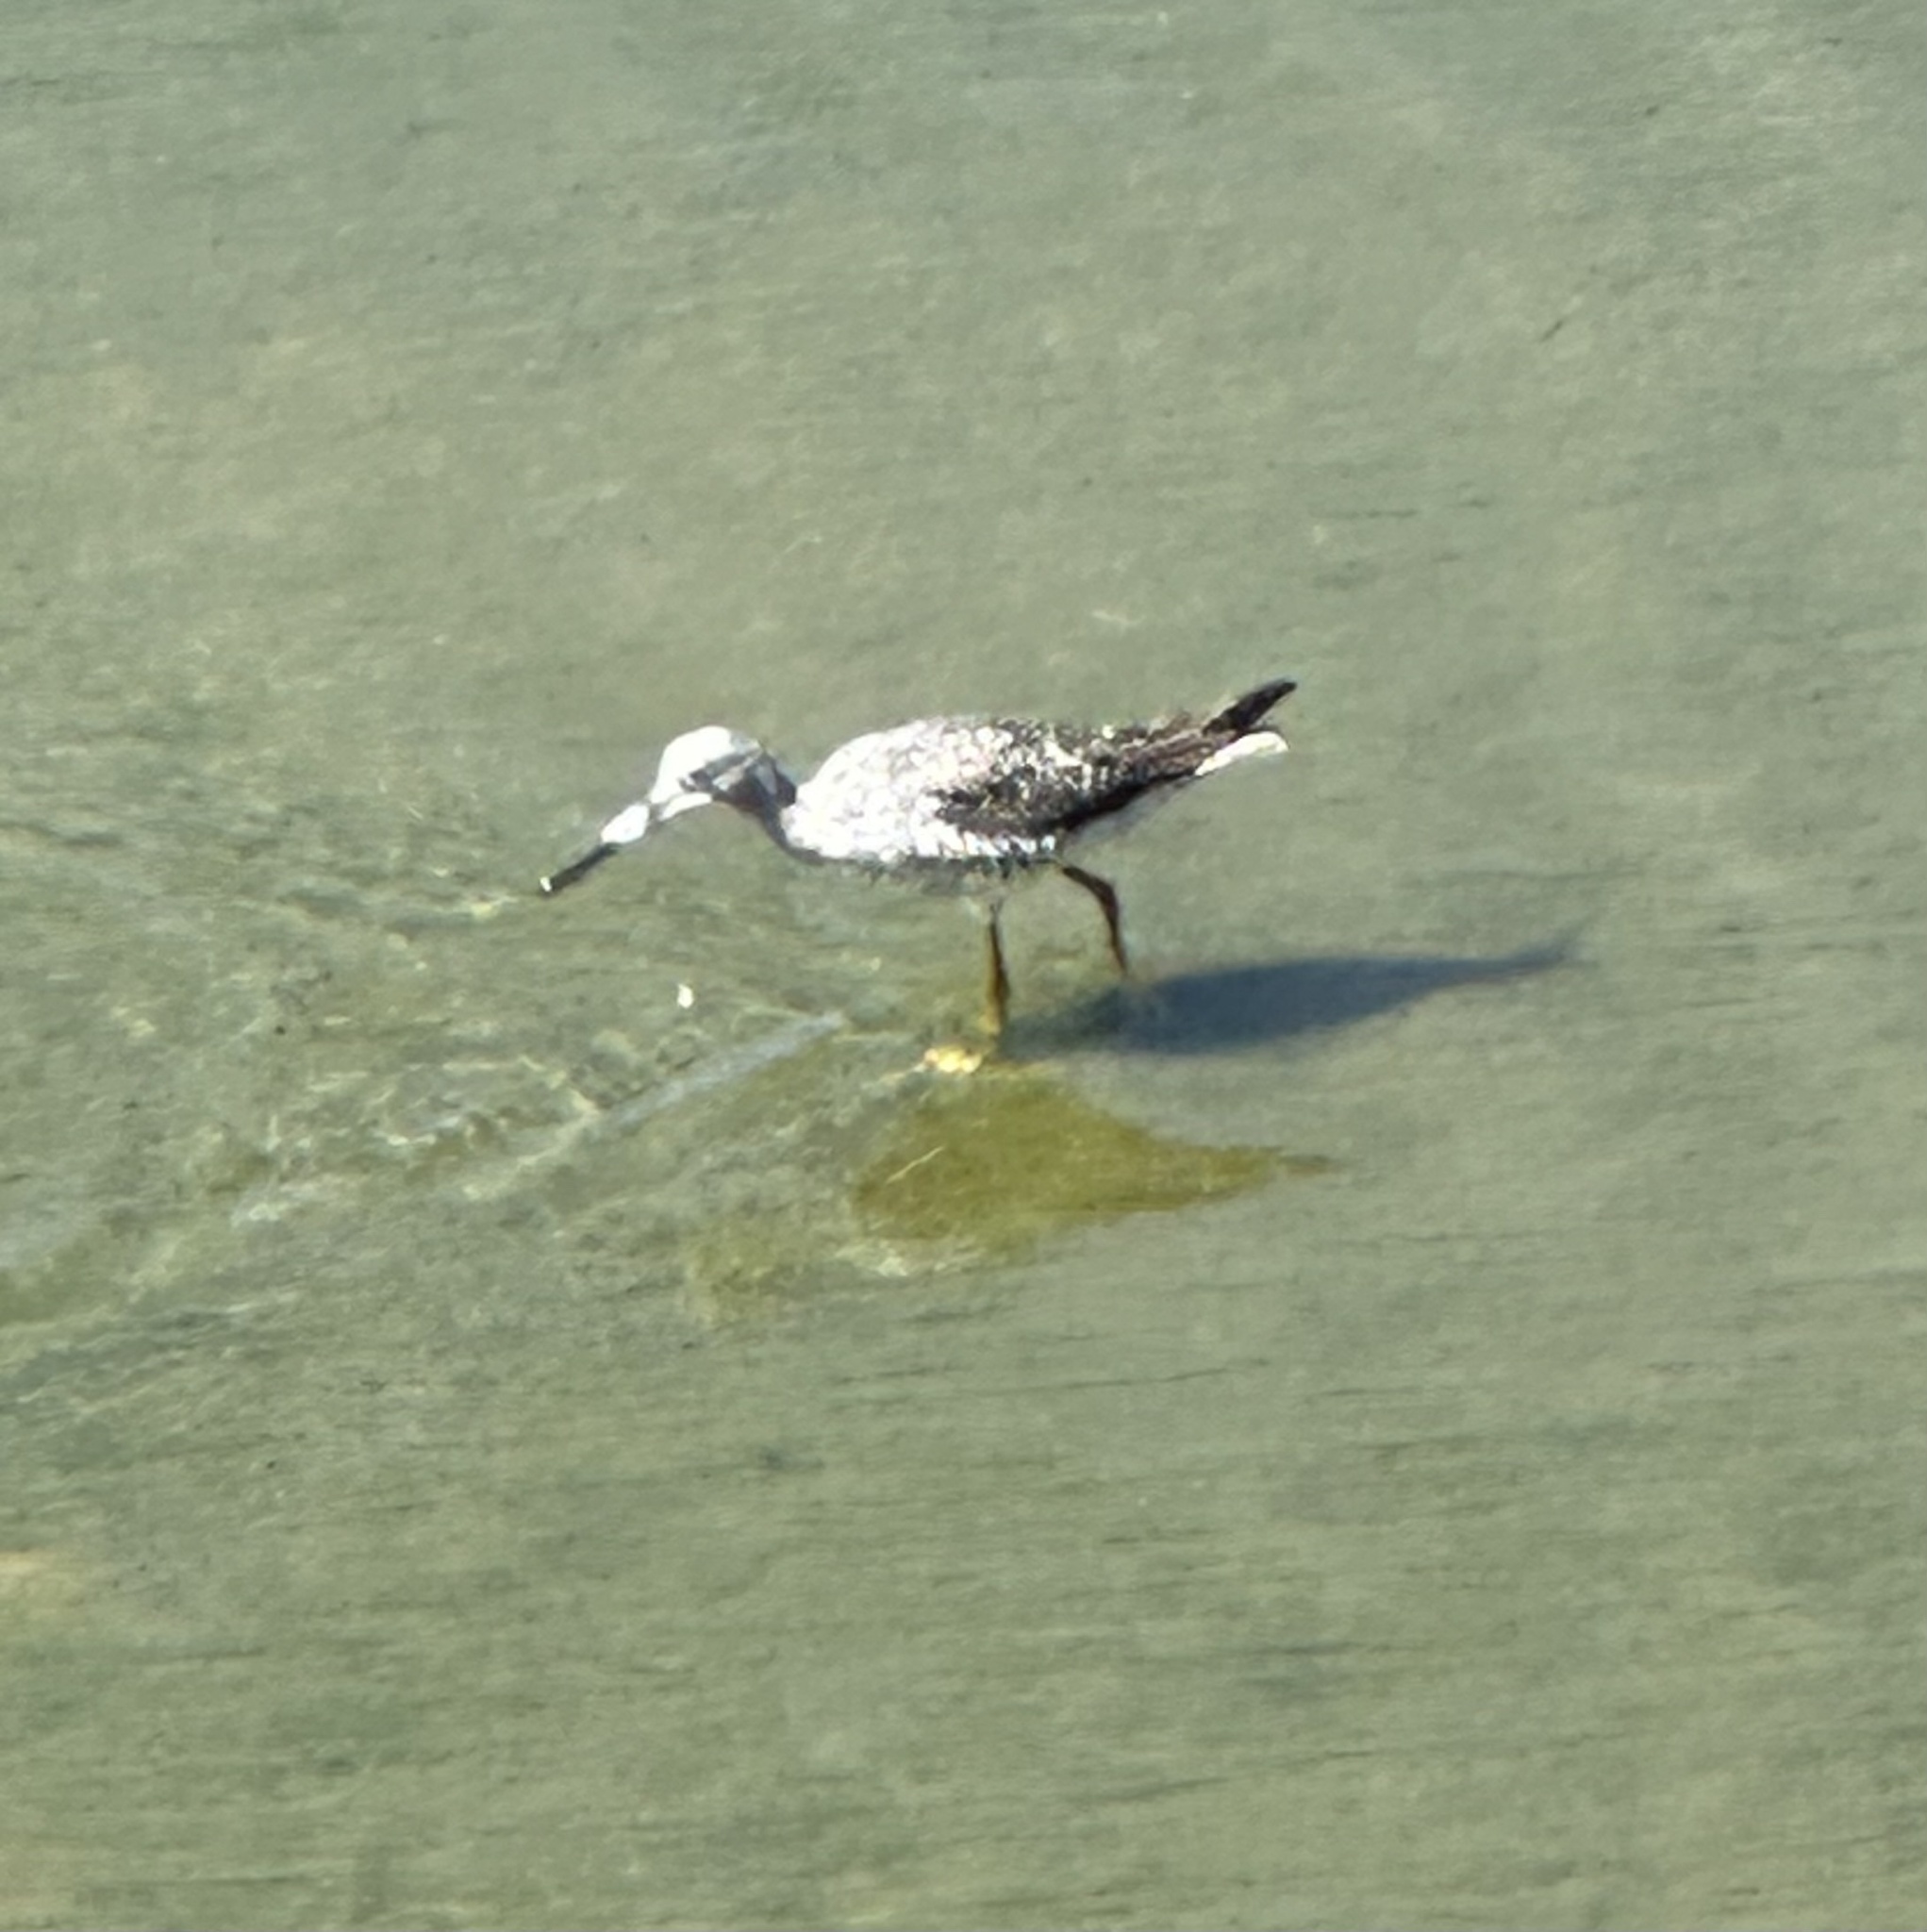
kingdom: Animalia
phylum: Chordata
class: Aves
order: Charadriiformes
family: Scolopacidae
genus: Tringa
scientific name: Tringa melanoleuca
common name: Greater yellowlegs
